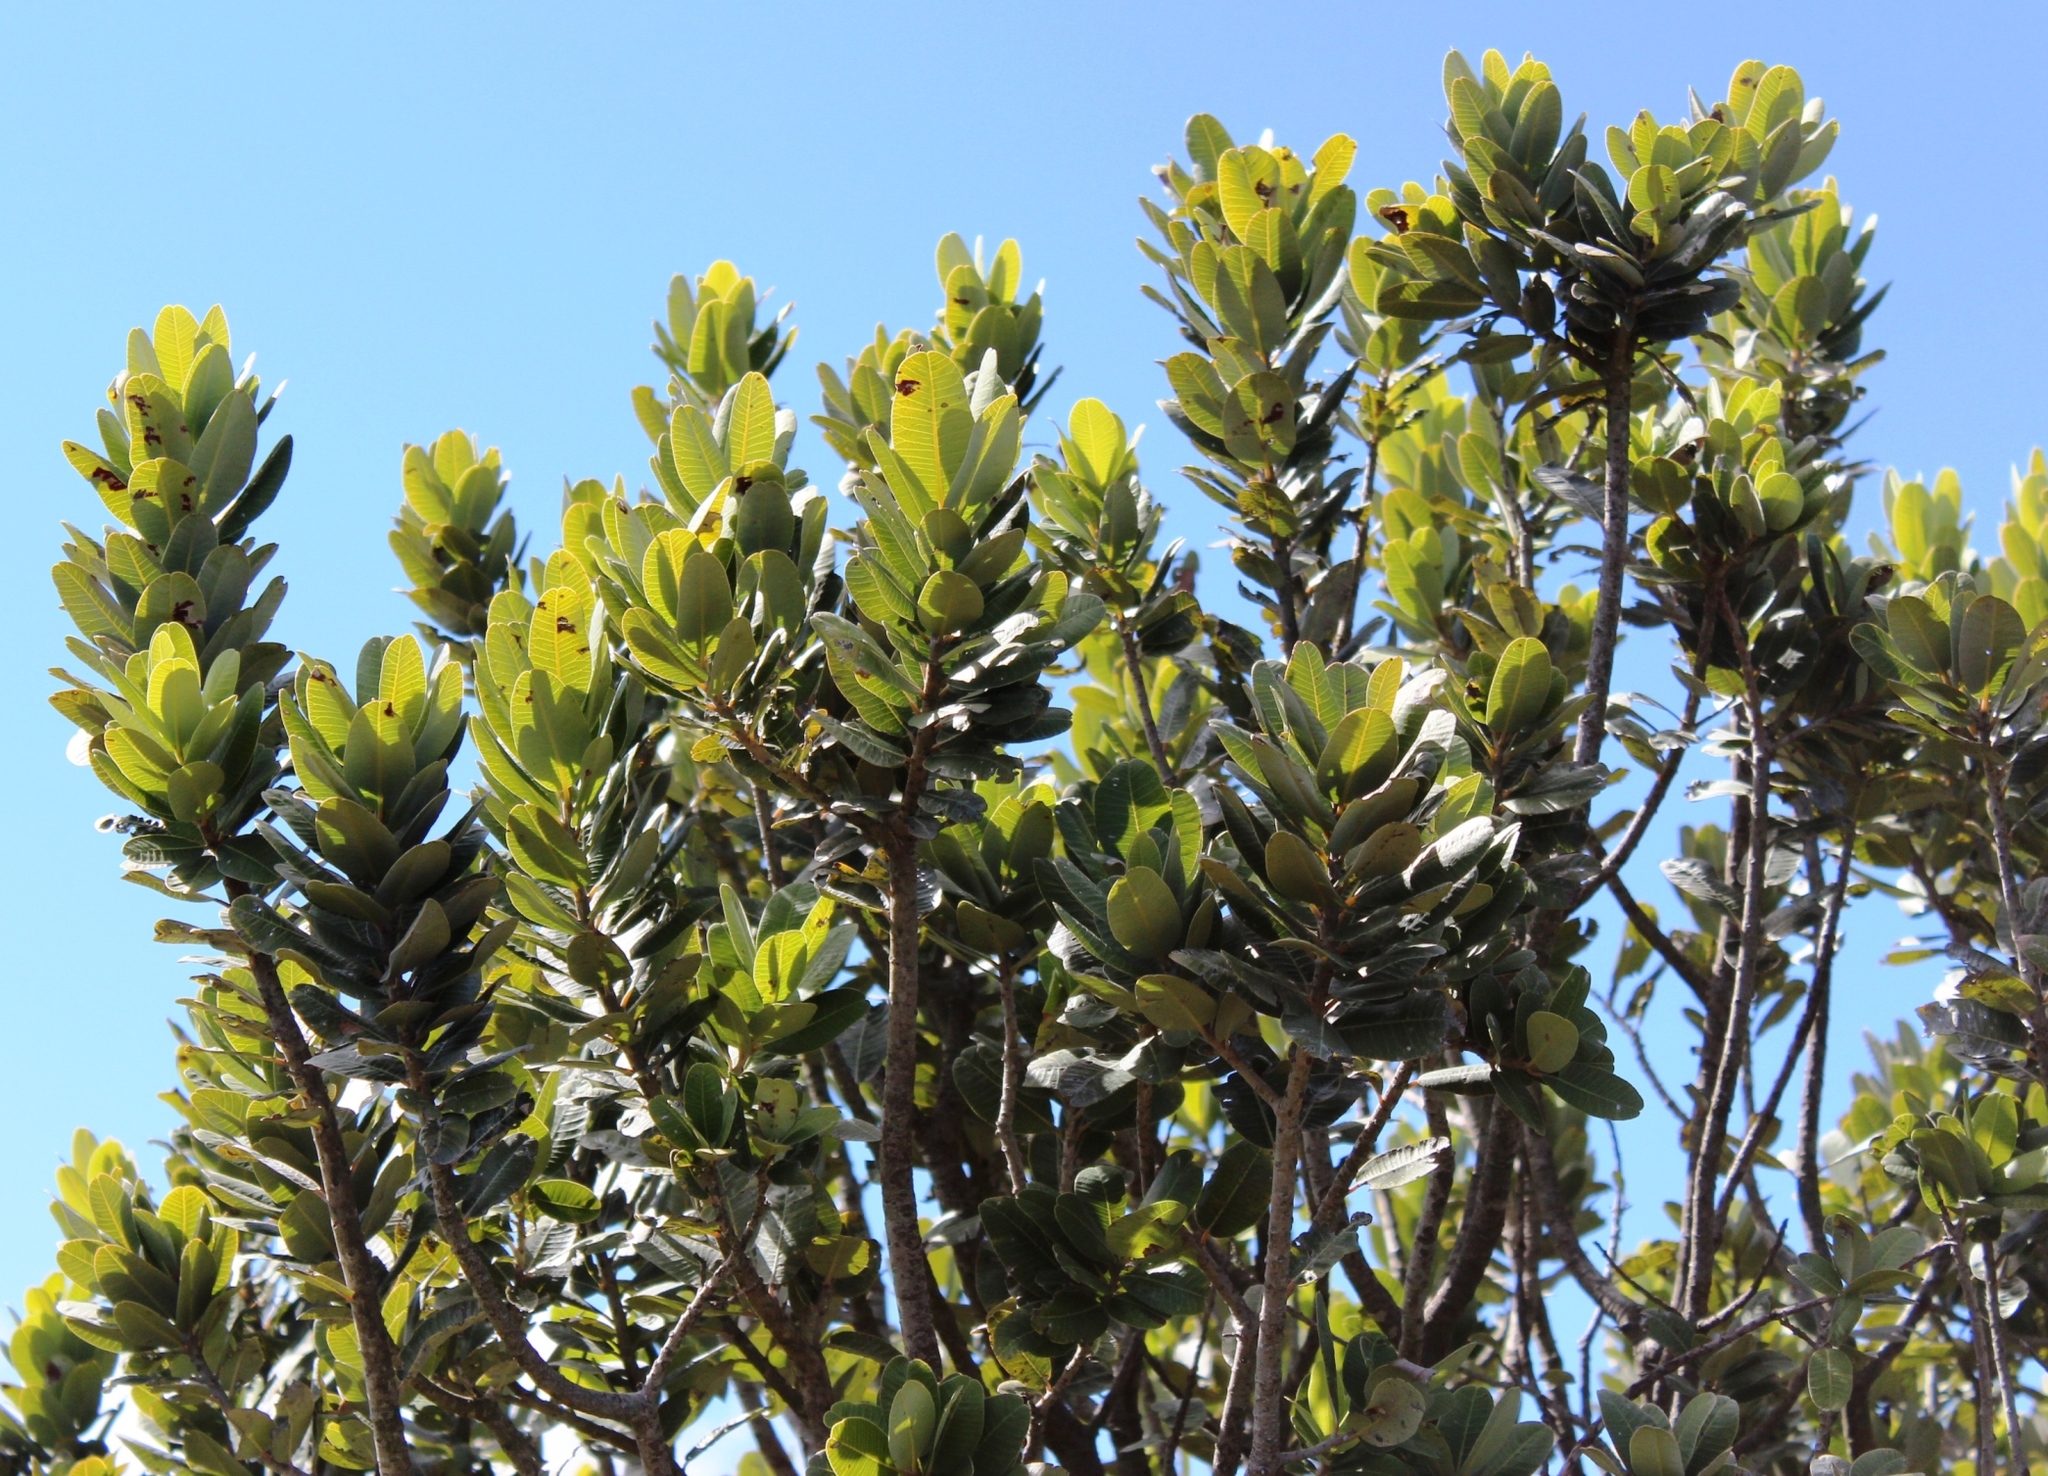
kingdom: Plantae
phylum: Tracheophyta
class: Magnoliopsida
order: Sapindales
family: Anacardiaceae
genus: Heeria
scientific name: Heeria argentea
